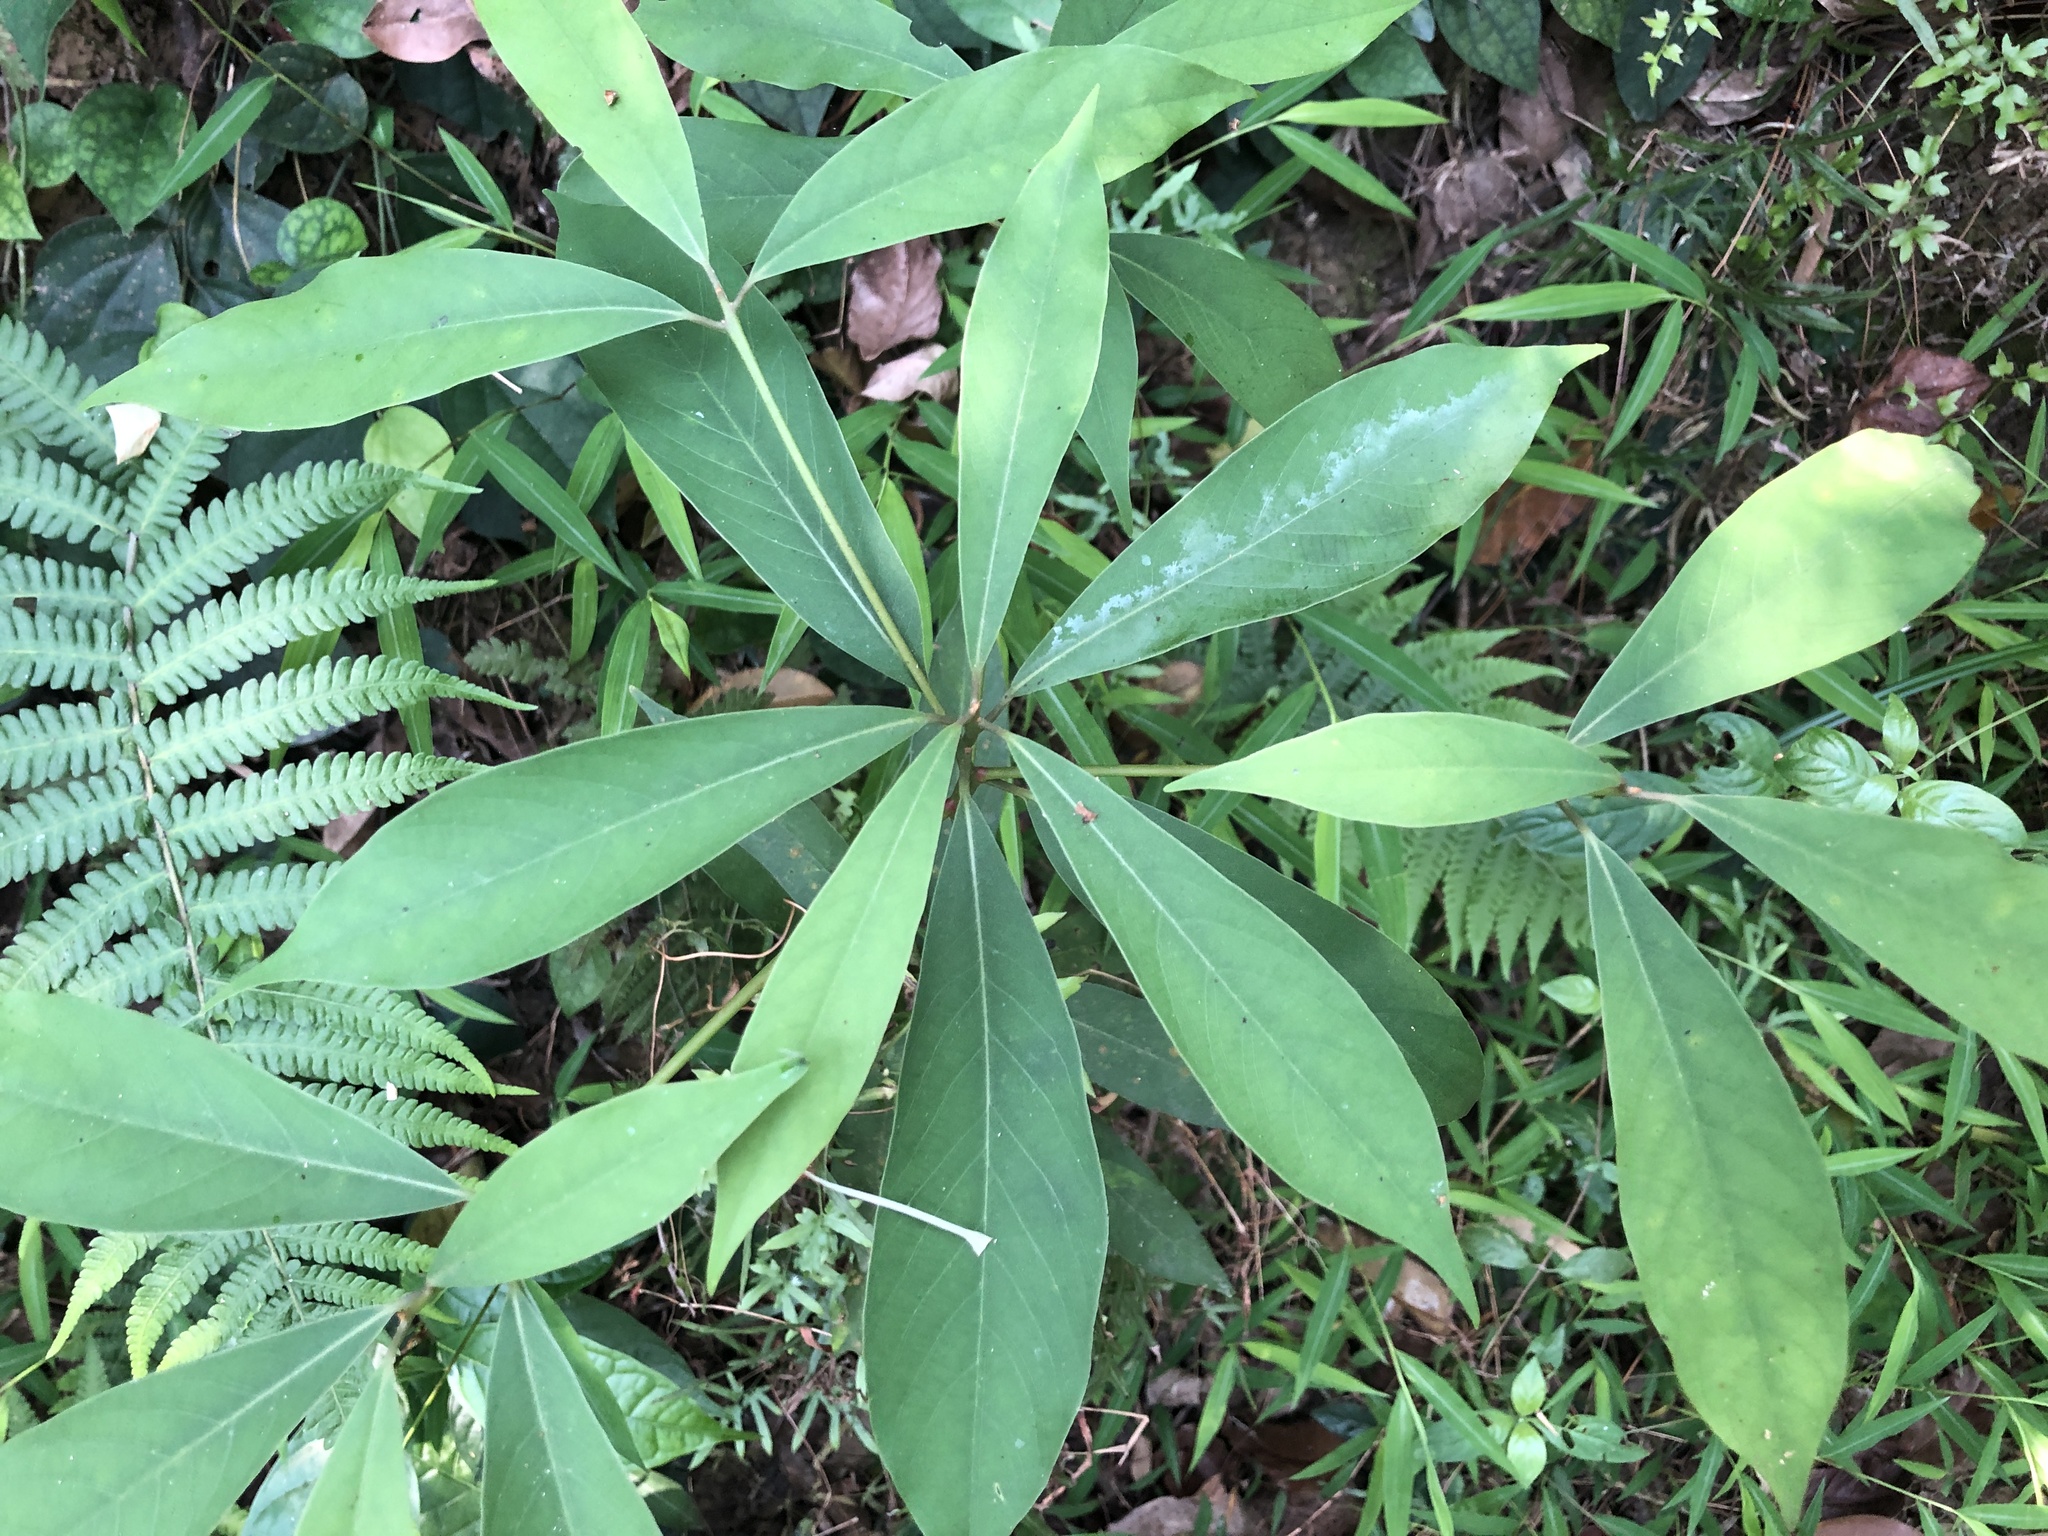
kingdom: Plantae
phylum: Tracheophyta
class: Magnoliopsida
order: Laurales
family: Lauraceae
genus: Machilus
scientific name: Machilus zuihoensis
